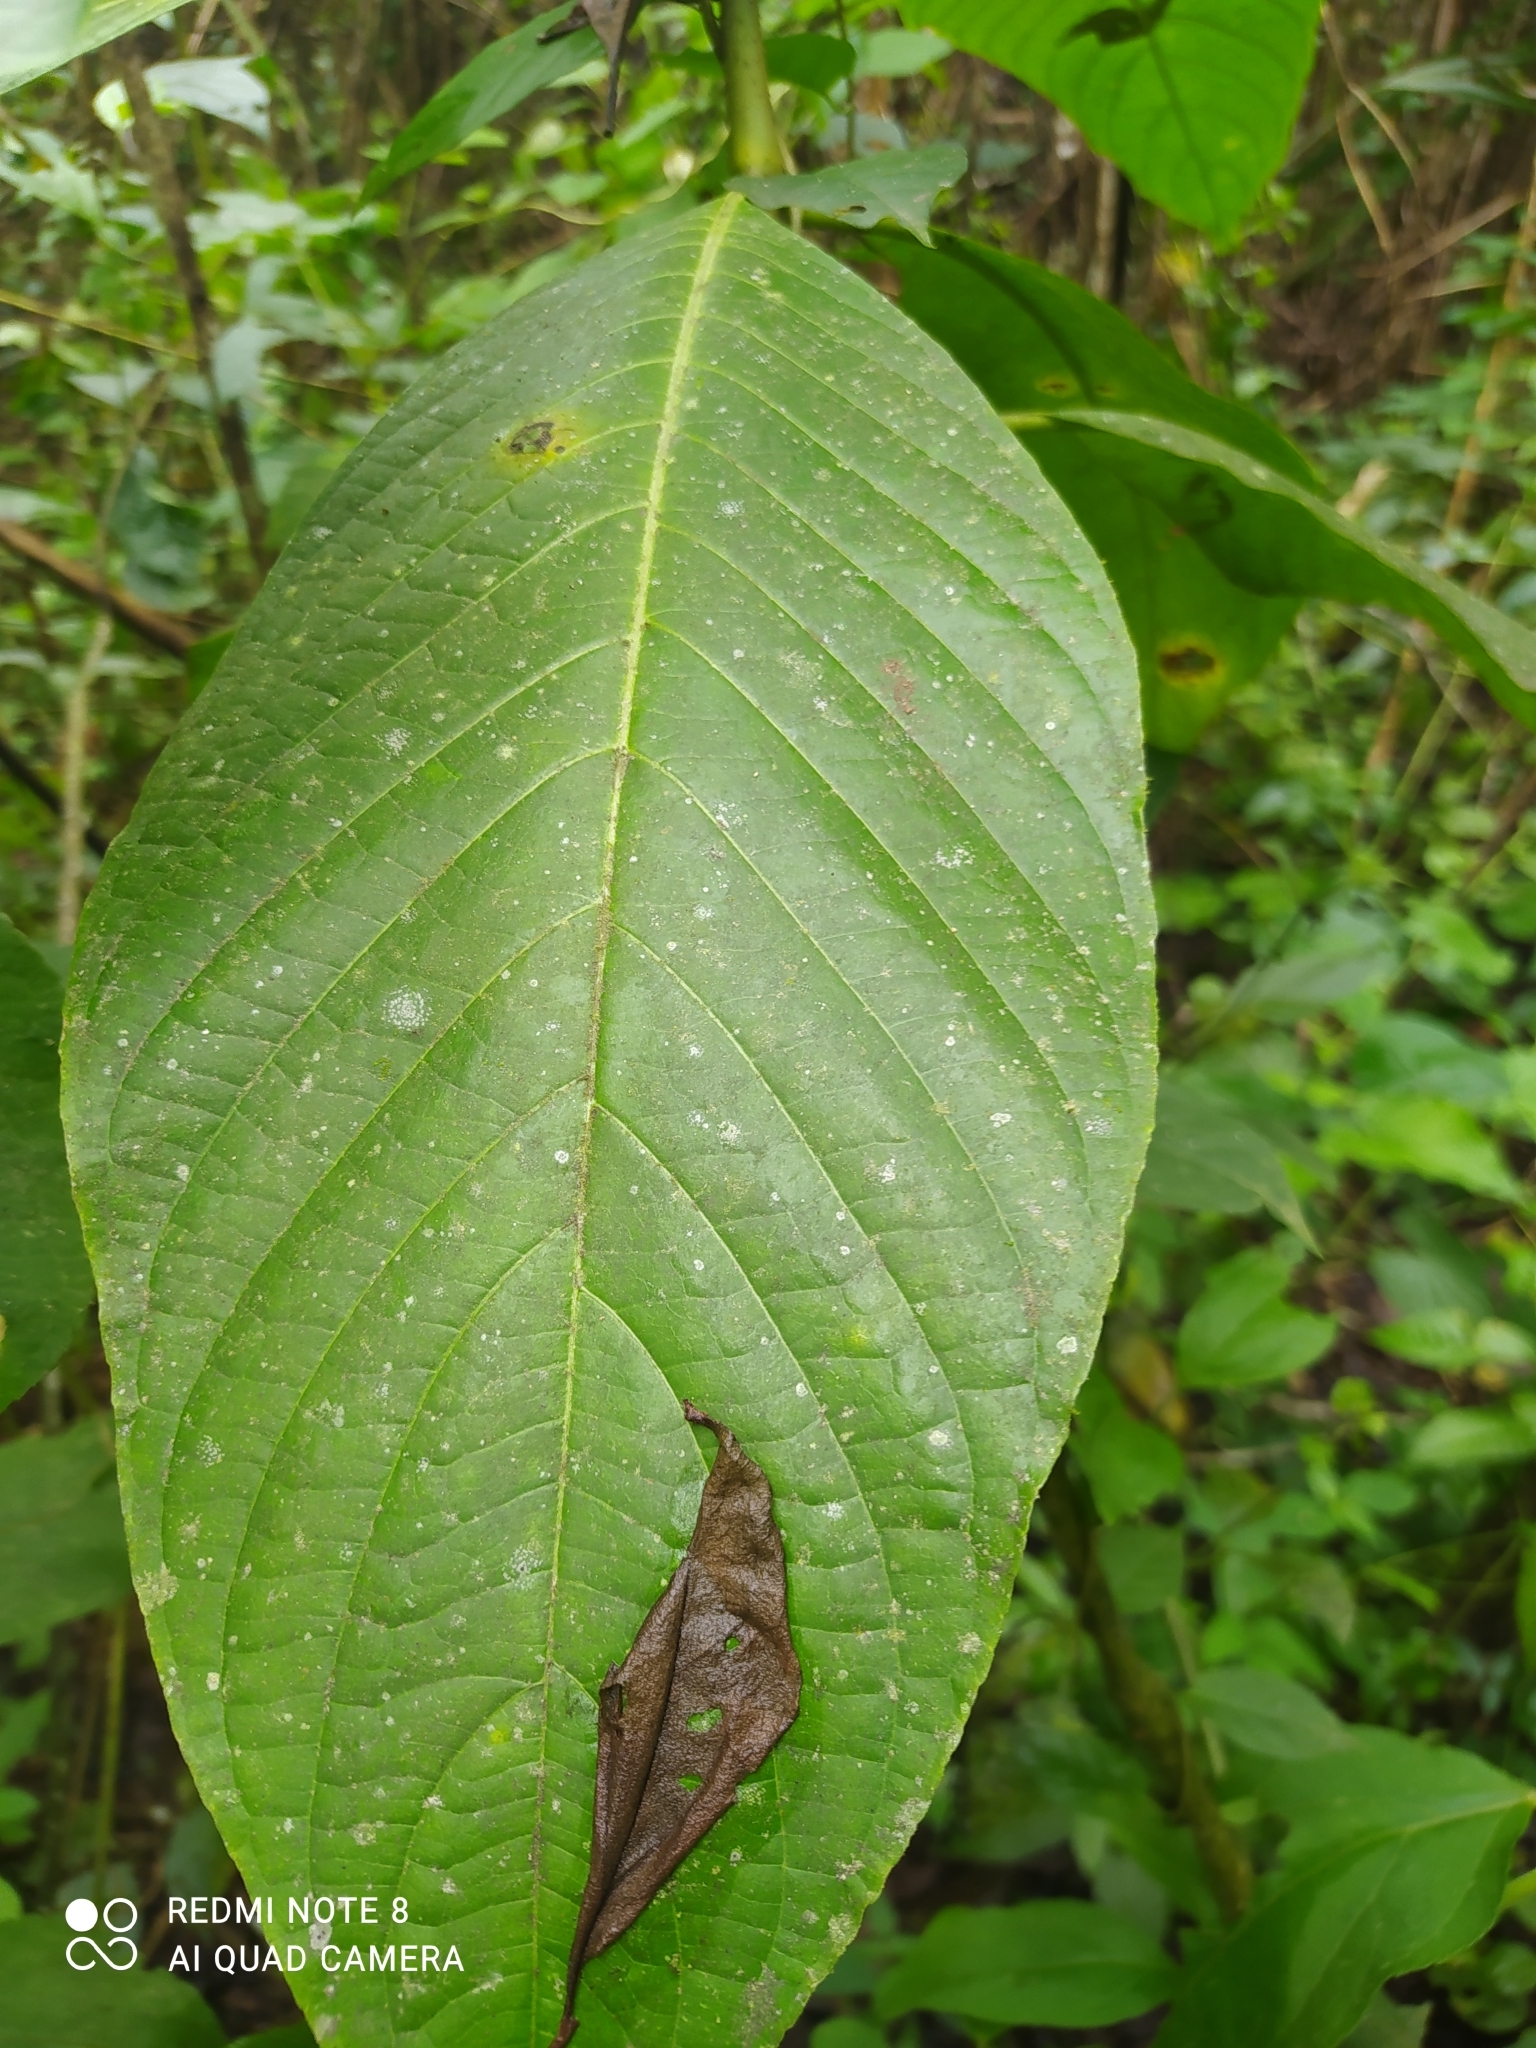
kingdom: Plantae
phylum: Tracheophyta
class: Magnoliopsida
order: Lamiales
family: Acanthaceae
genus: Megaskepasma
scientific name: Megaskepasma erythrochlamys
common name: Brazilian red-cloak
